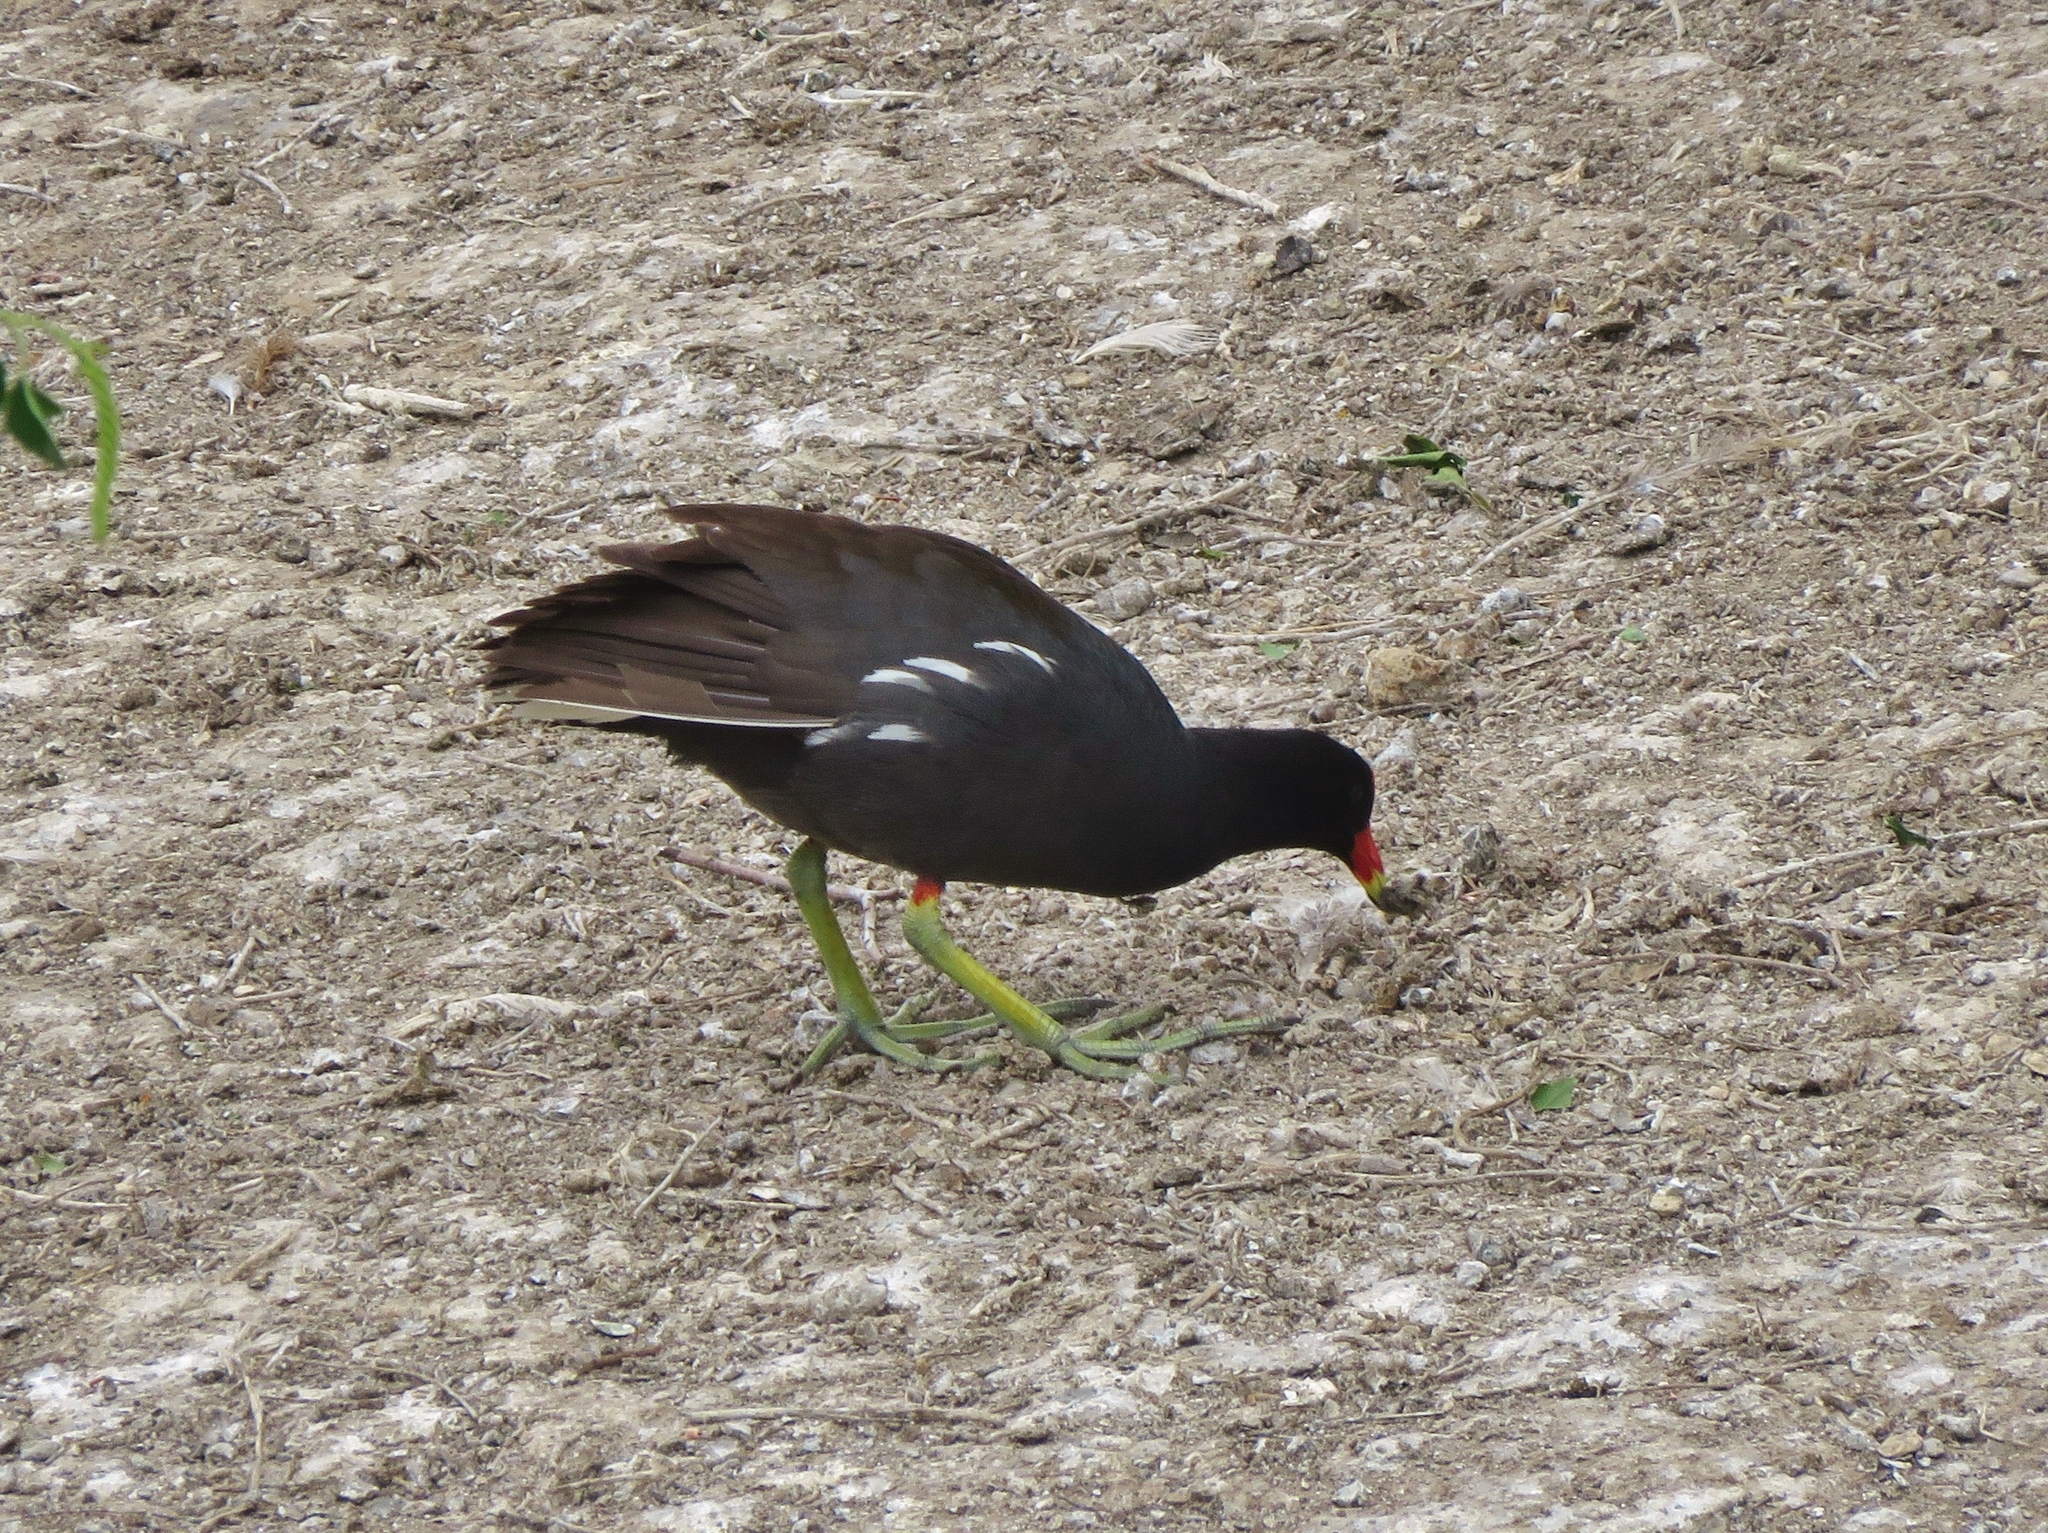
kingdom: Animalia
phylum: Chordata
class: Aves
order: Gruiformes
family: Rallidae
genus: Gallinula
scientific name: Gallinula chloropus
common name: Common moorhen
